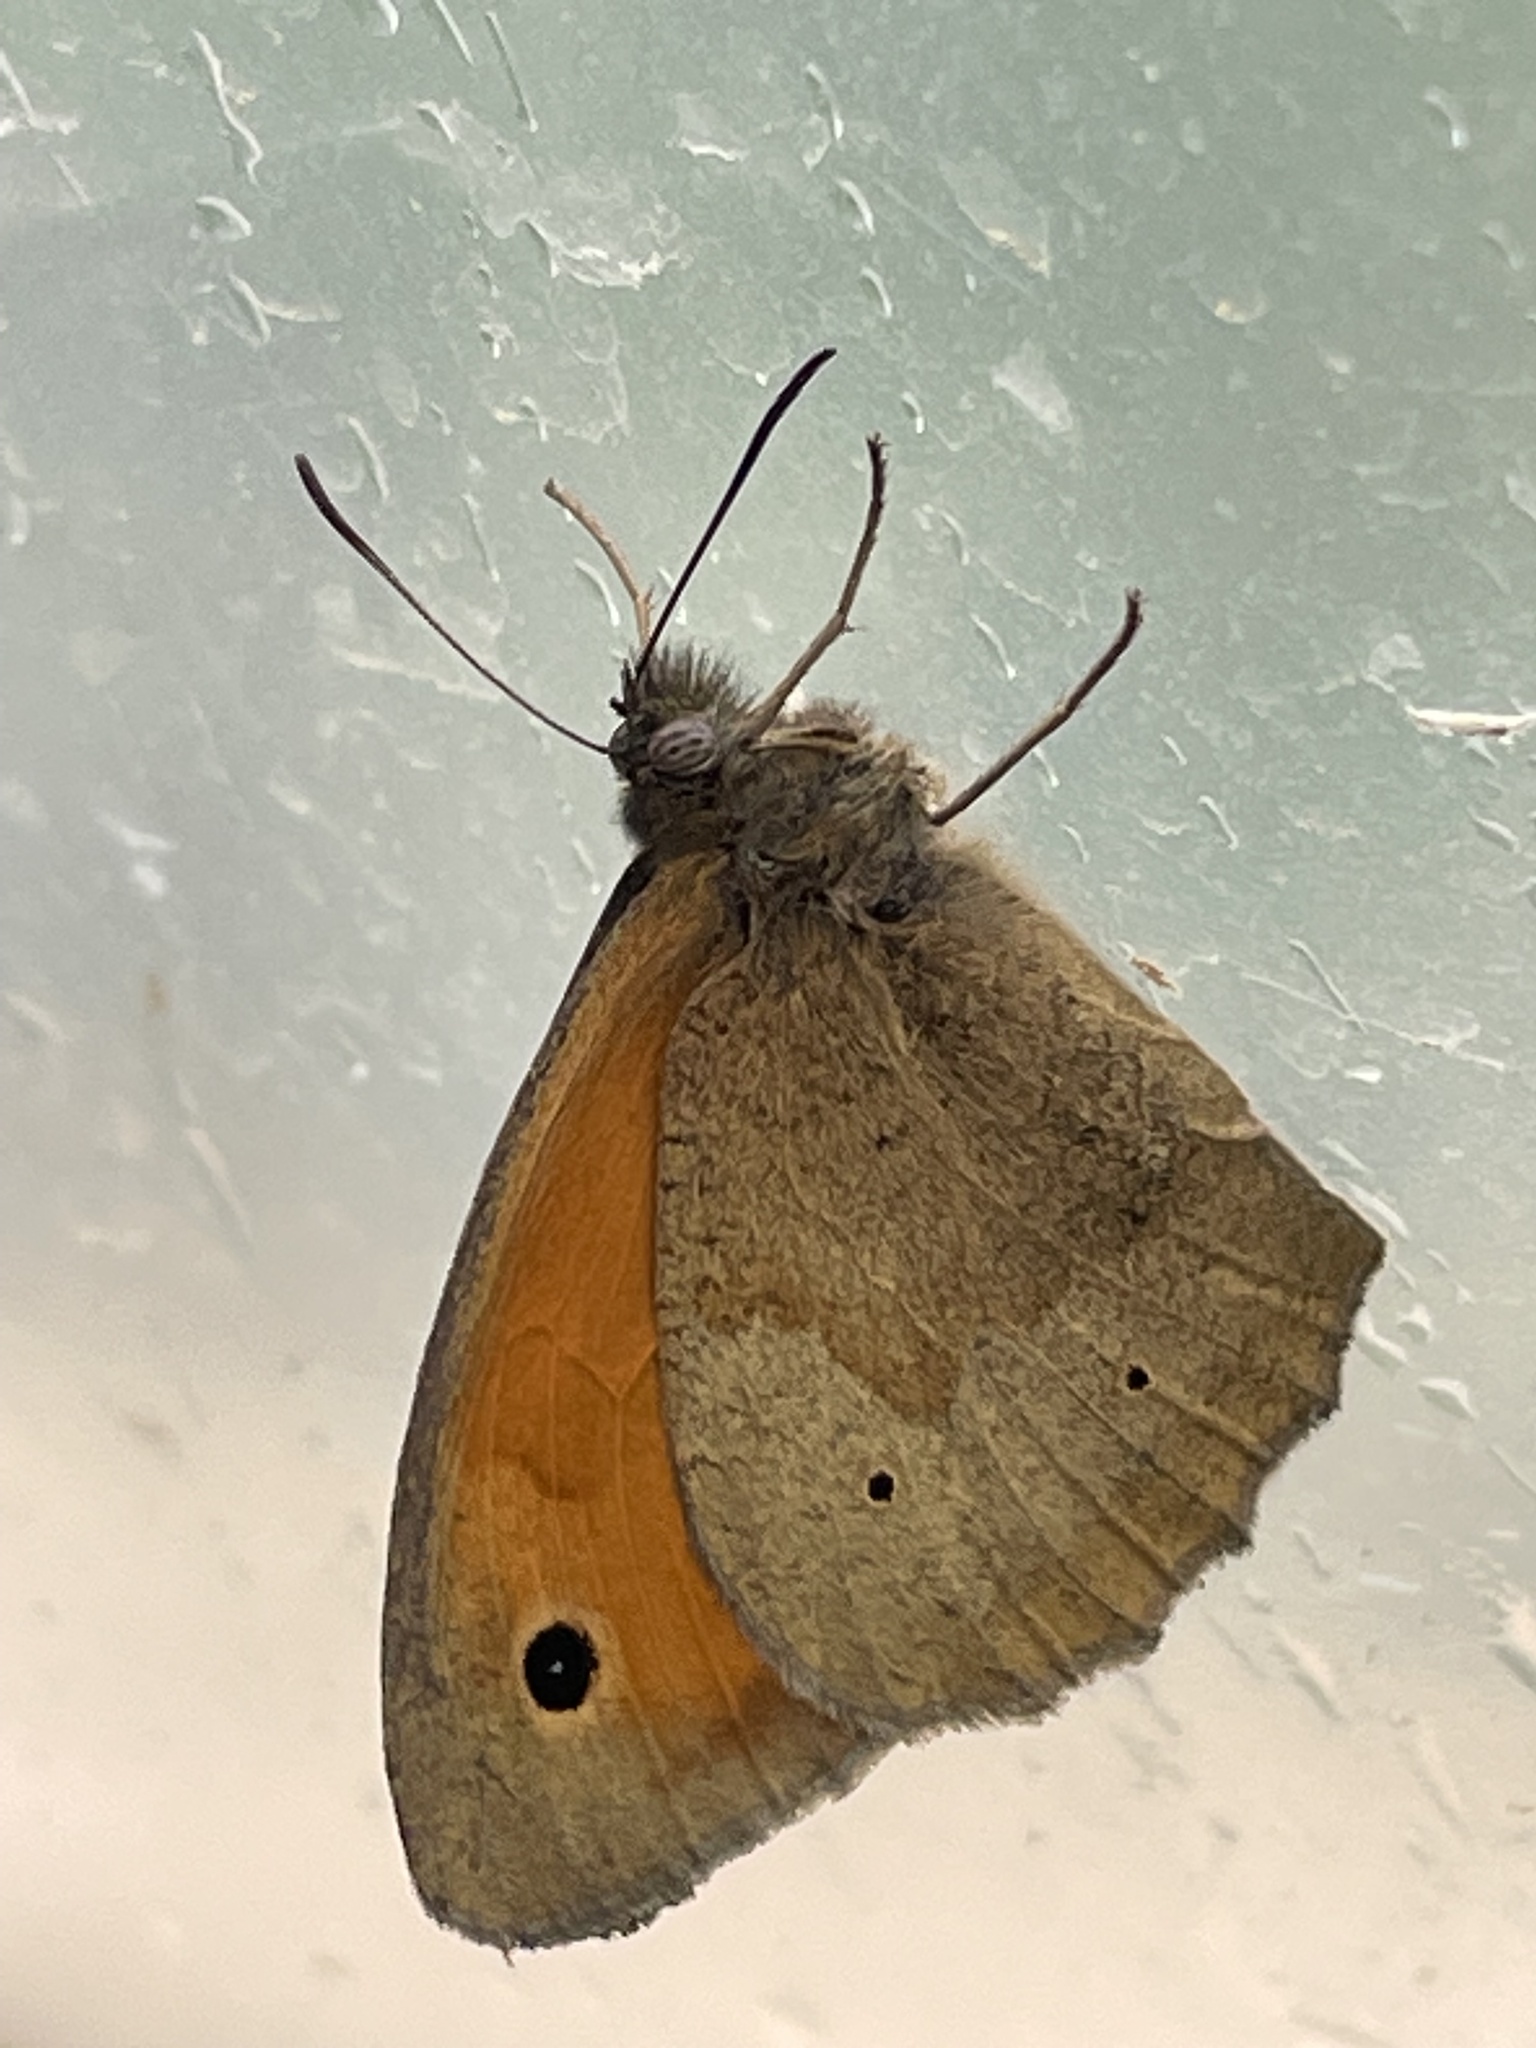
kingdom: Animalia
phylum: Arthropoda
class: Insecta
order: Lepidoptera
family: Nymphalidae
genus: Maniola
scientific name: Maniola jurtina
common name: Meadow brown
